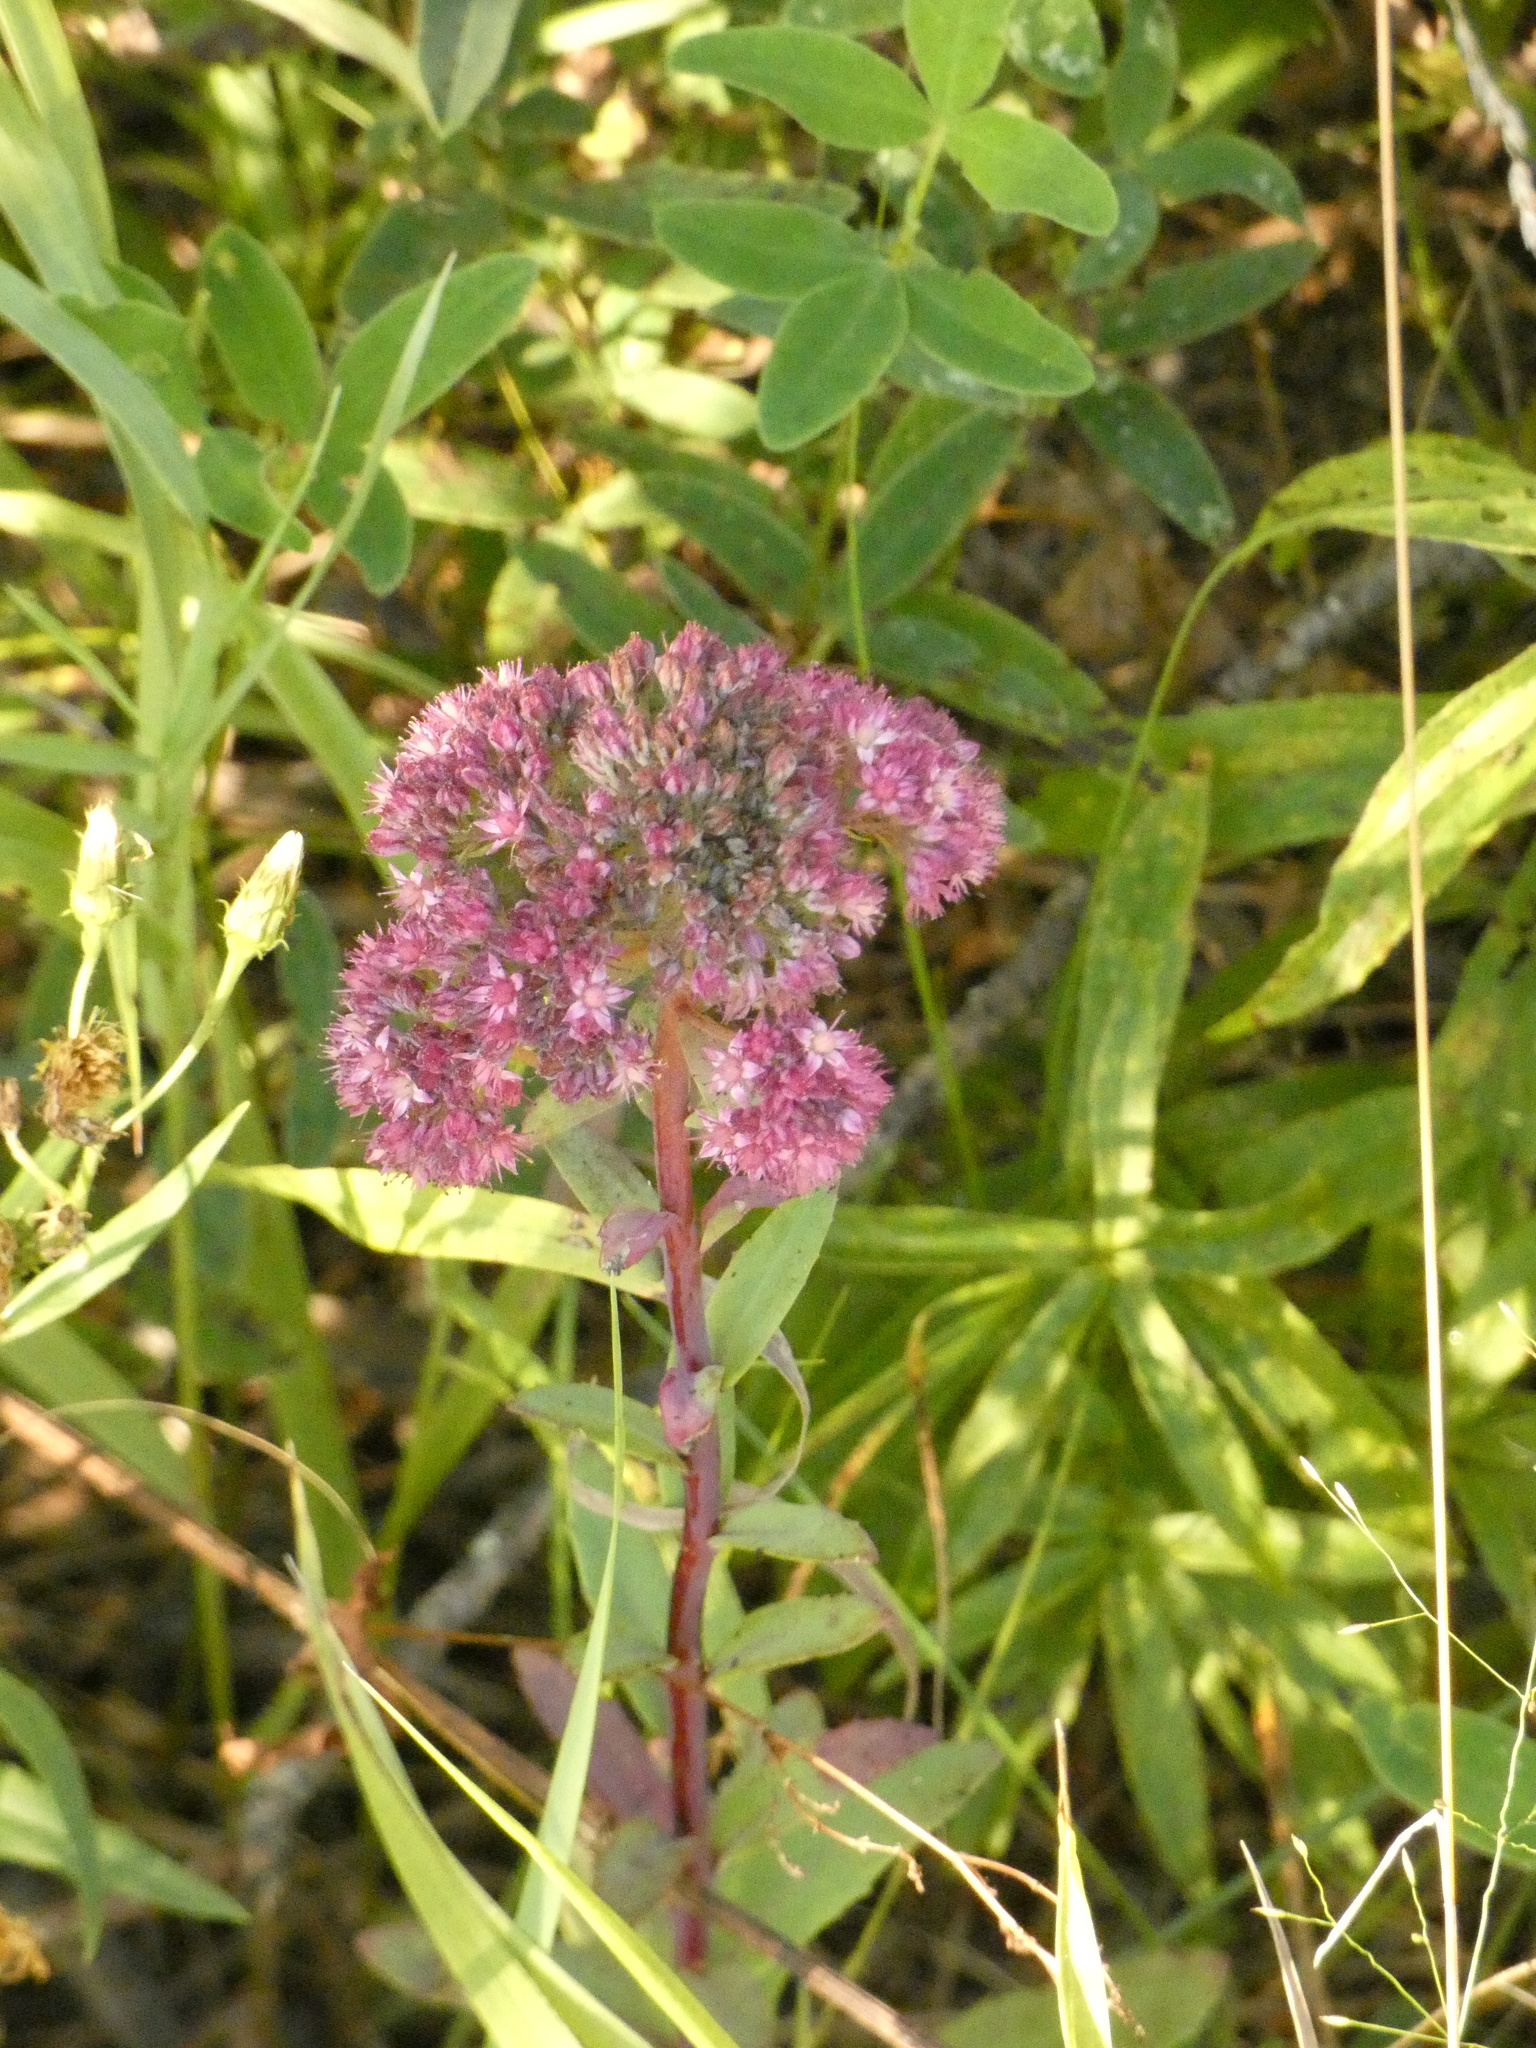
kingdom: Plantae
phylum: Tracheophyta
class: Magnoliopsida
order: Saxifragales
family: Crassulaceae
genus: Hylotelephium
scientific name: Hylotelephium telephium
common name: Live-forever
